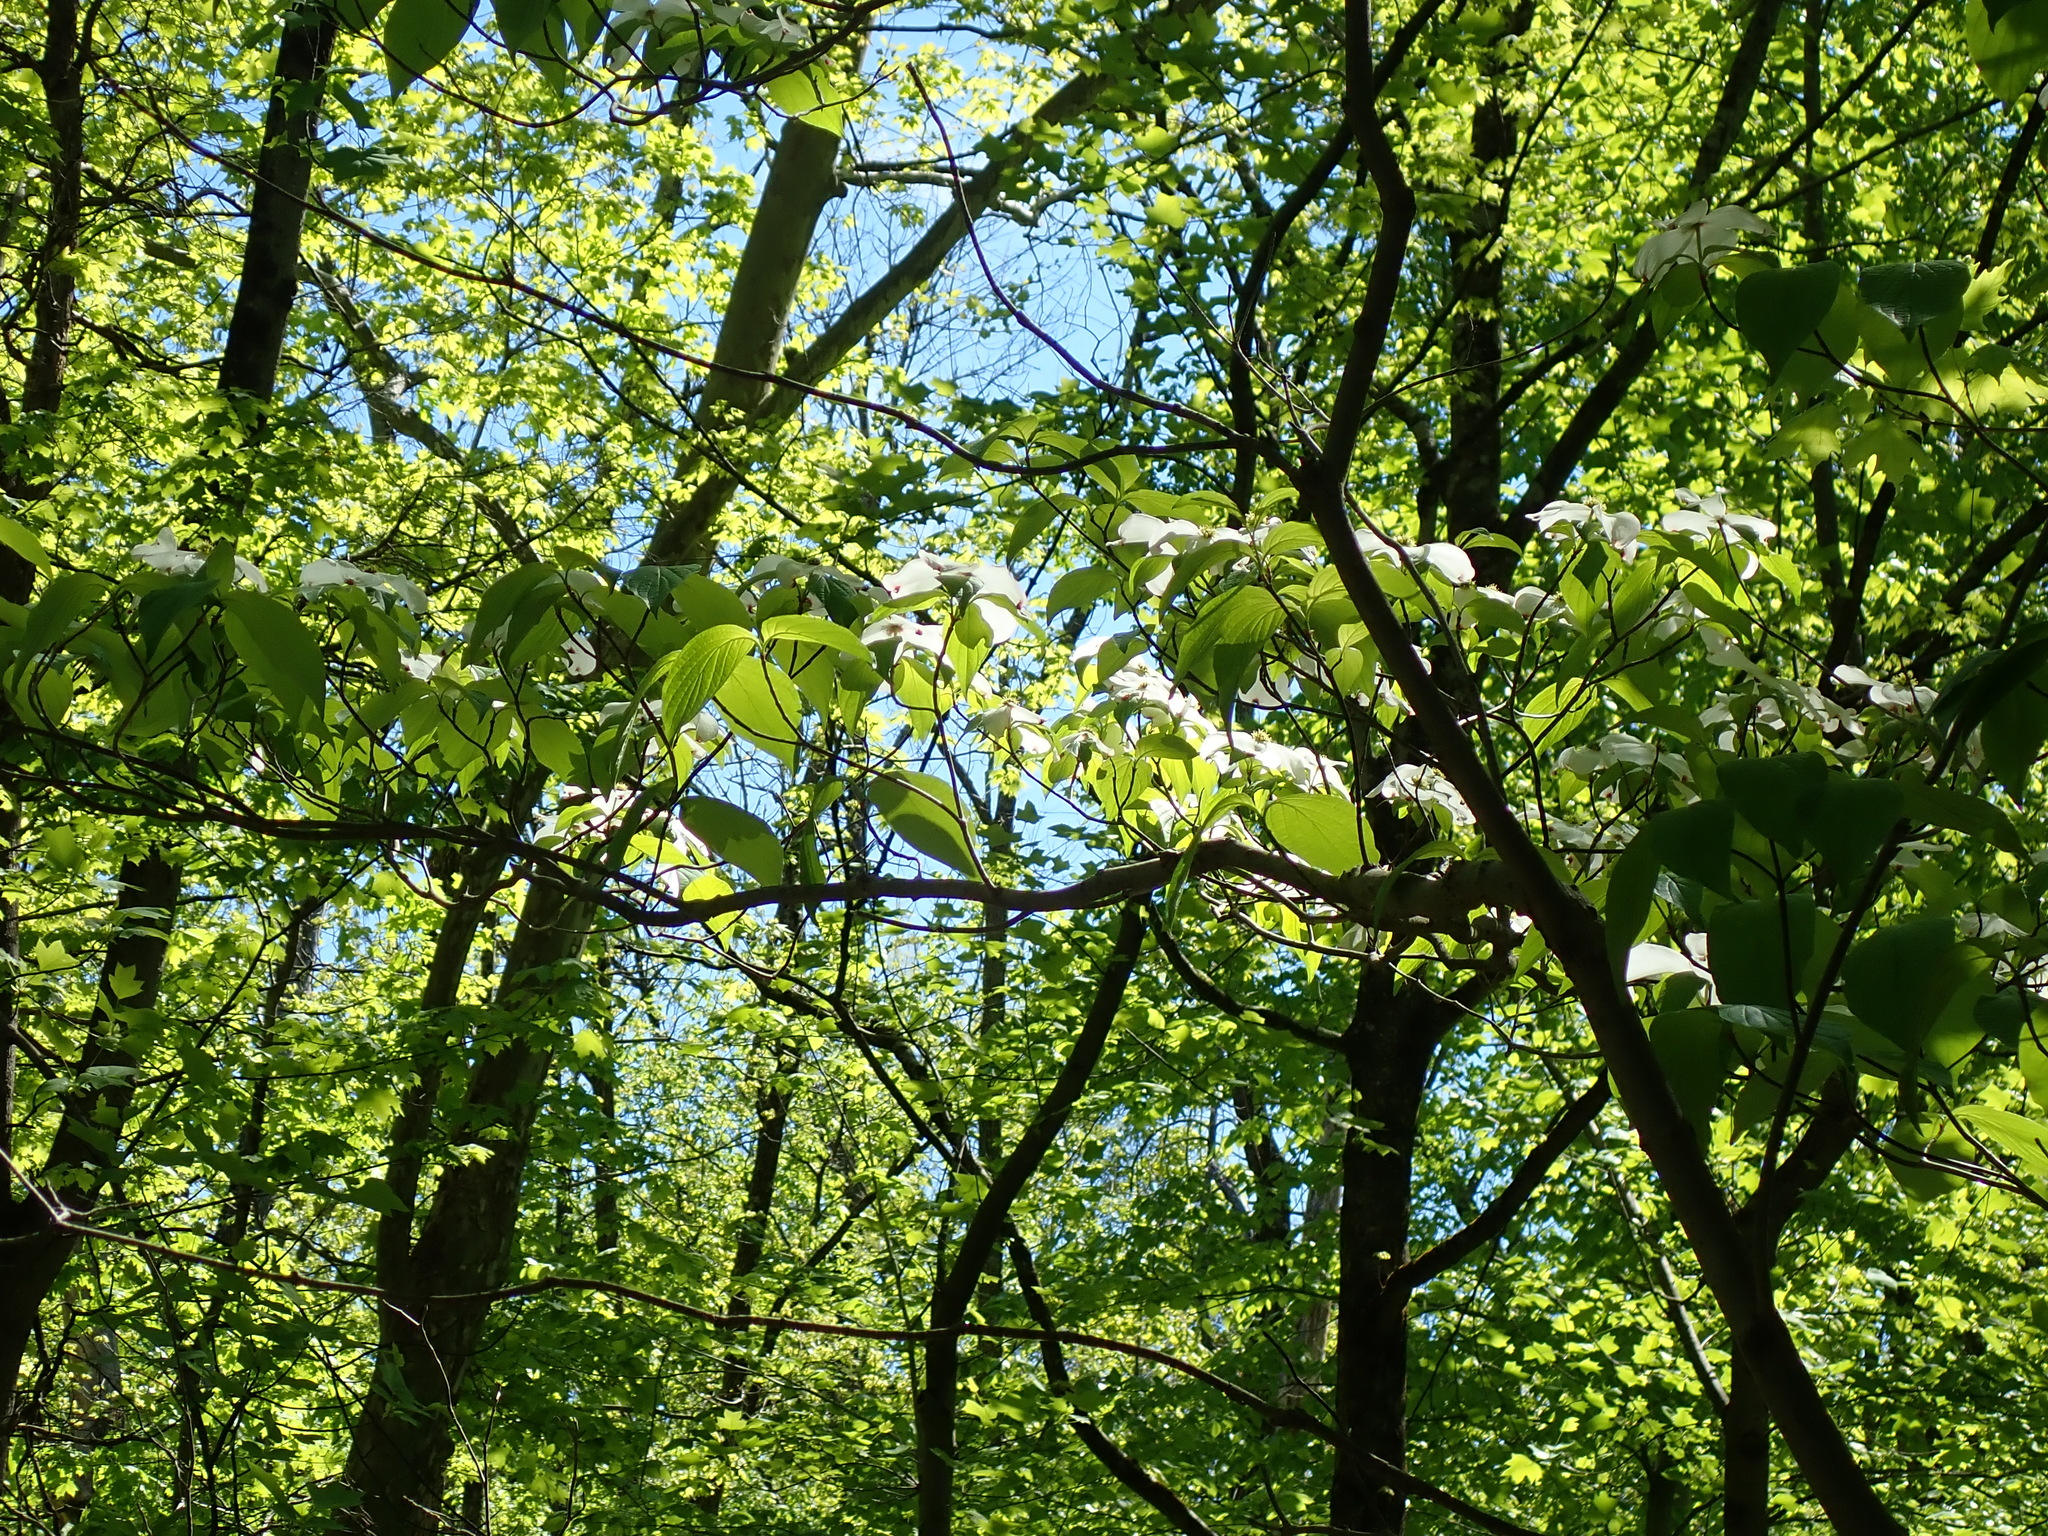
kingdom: Plantae
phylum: Tracheophyta
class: Magnoliopsida
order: Cornales
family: Cornaceae
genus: Cornus
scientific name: Cornus florida
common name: Flowering dogwood
